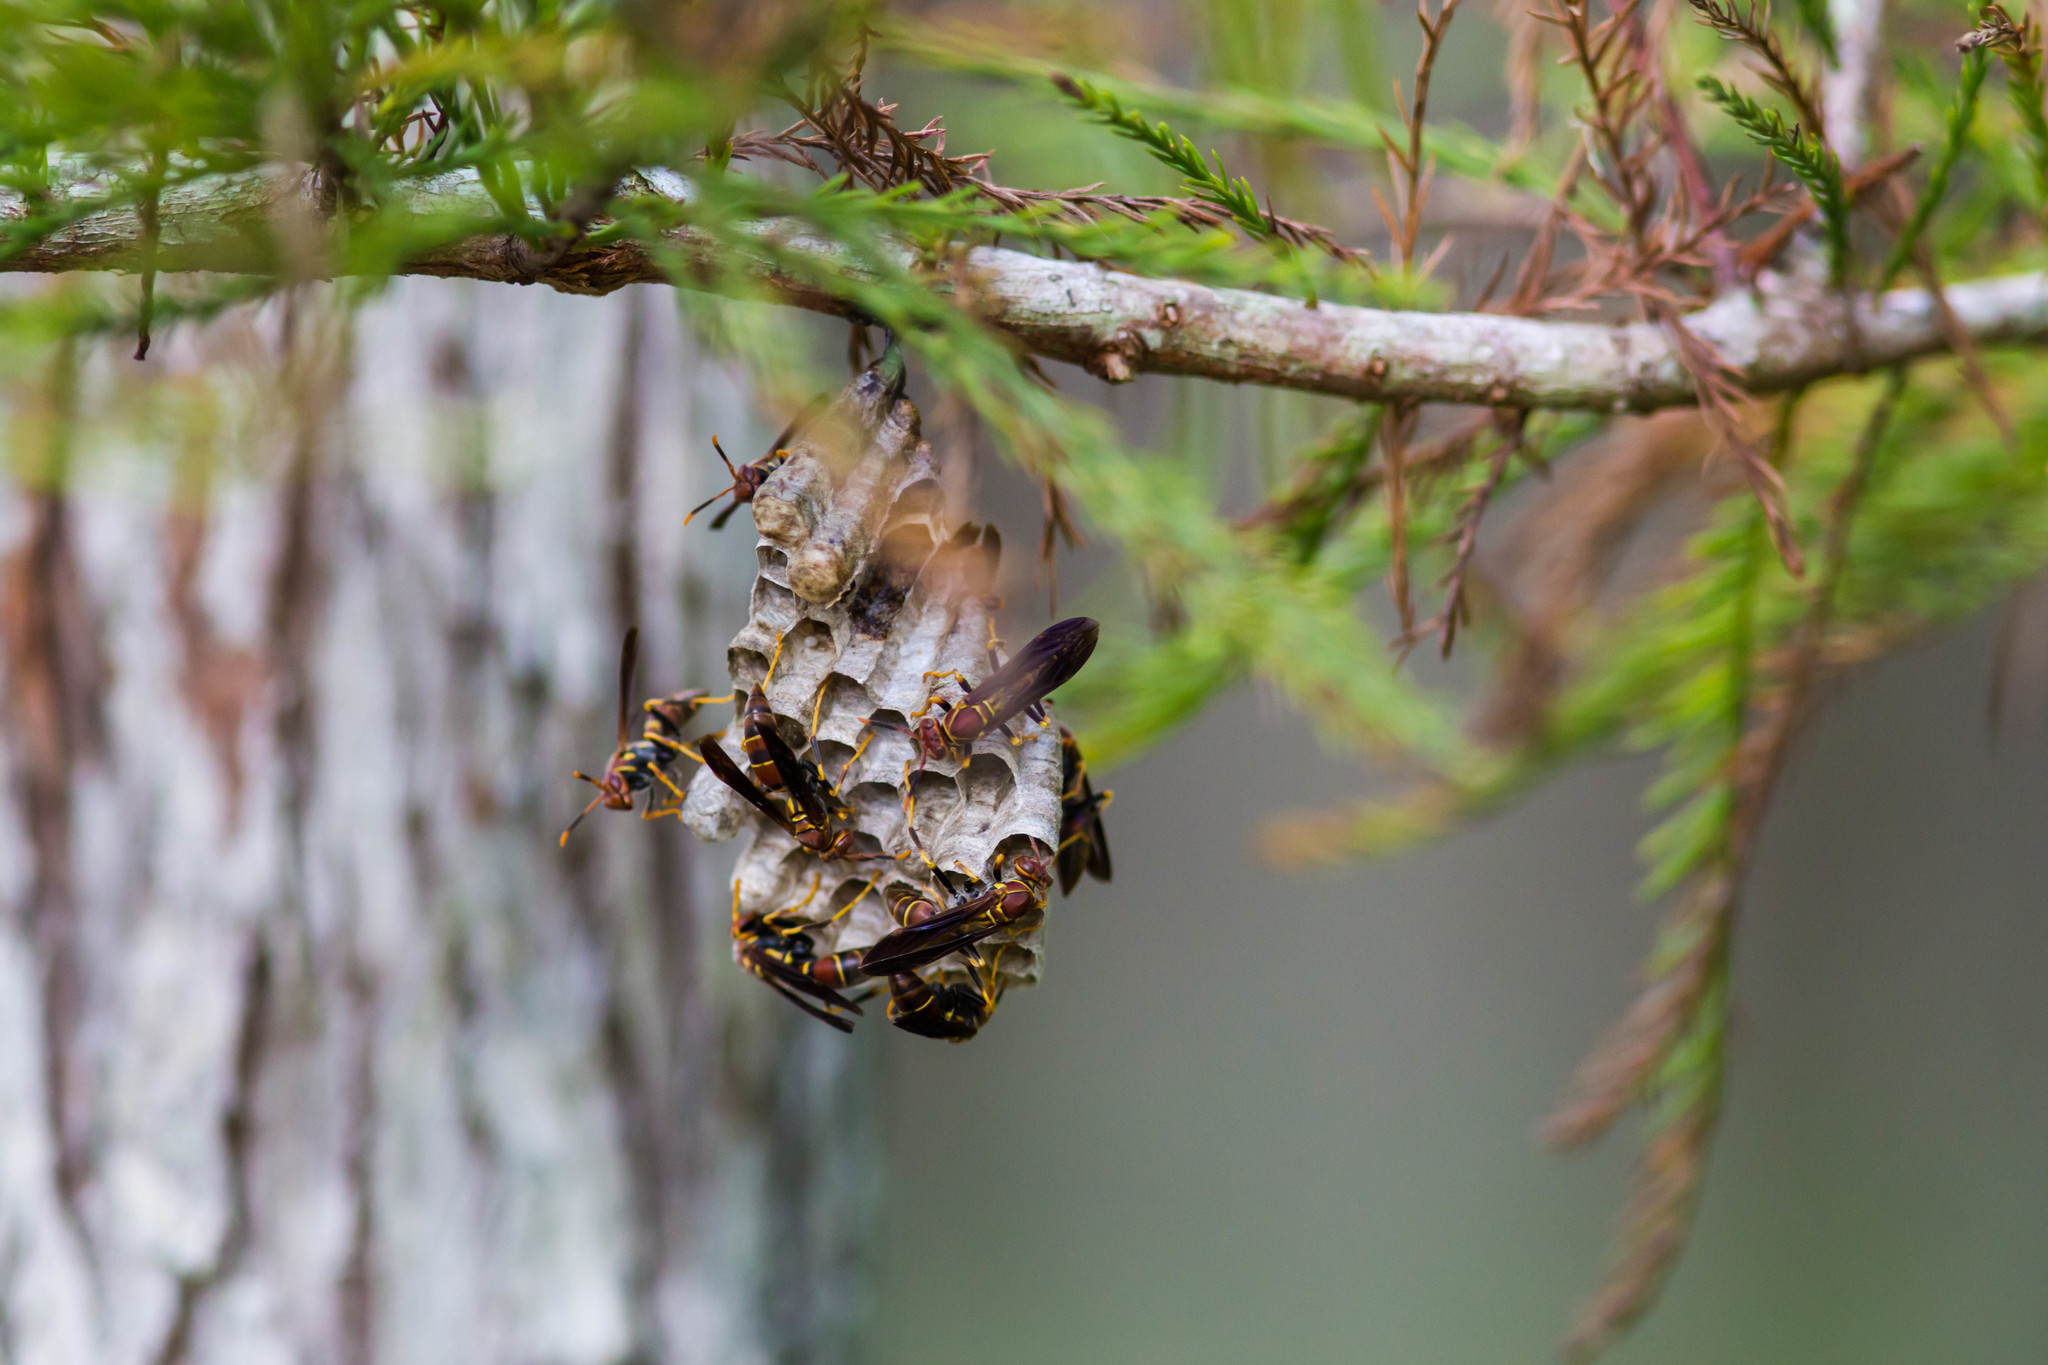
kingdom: Animalia
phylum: Arthropoda
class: Insecta
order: Hymenoptera
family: Eumenidae
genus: Polistes
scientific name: Polistes bahamensis
